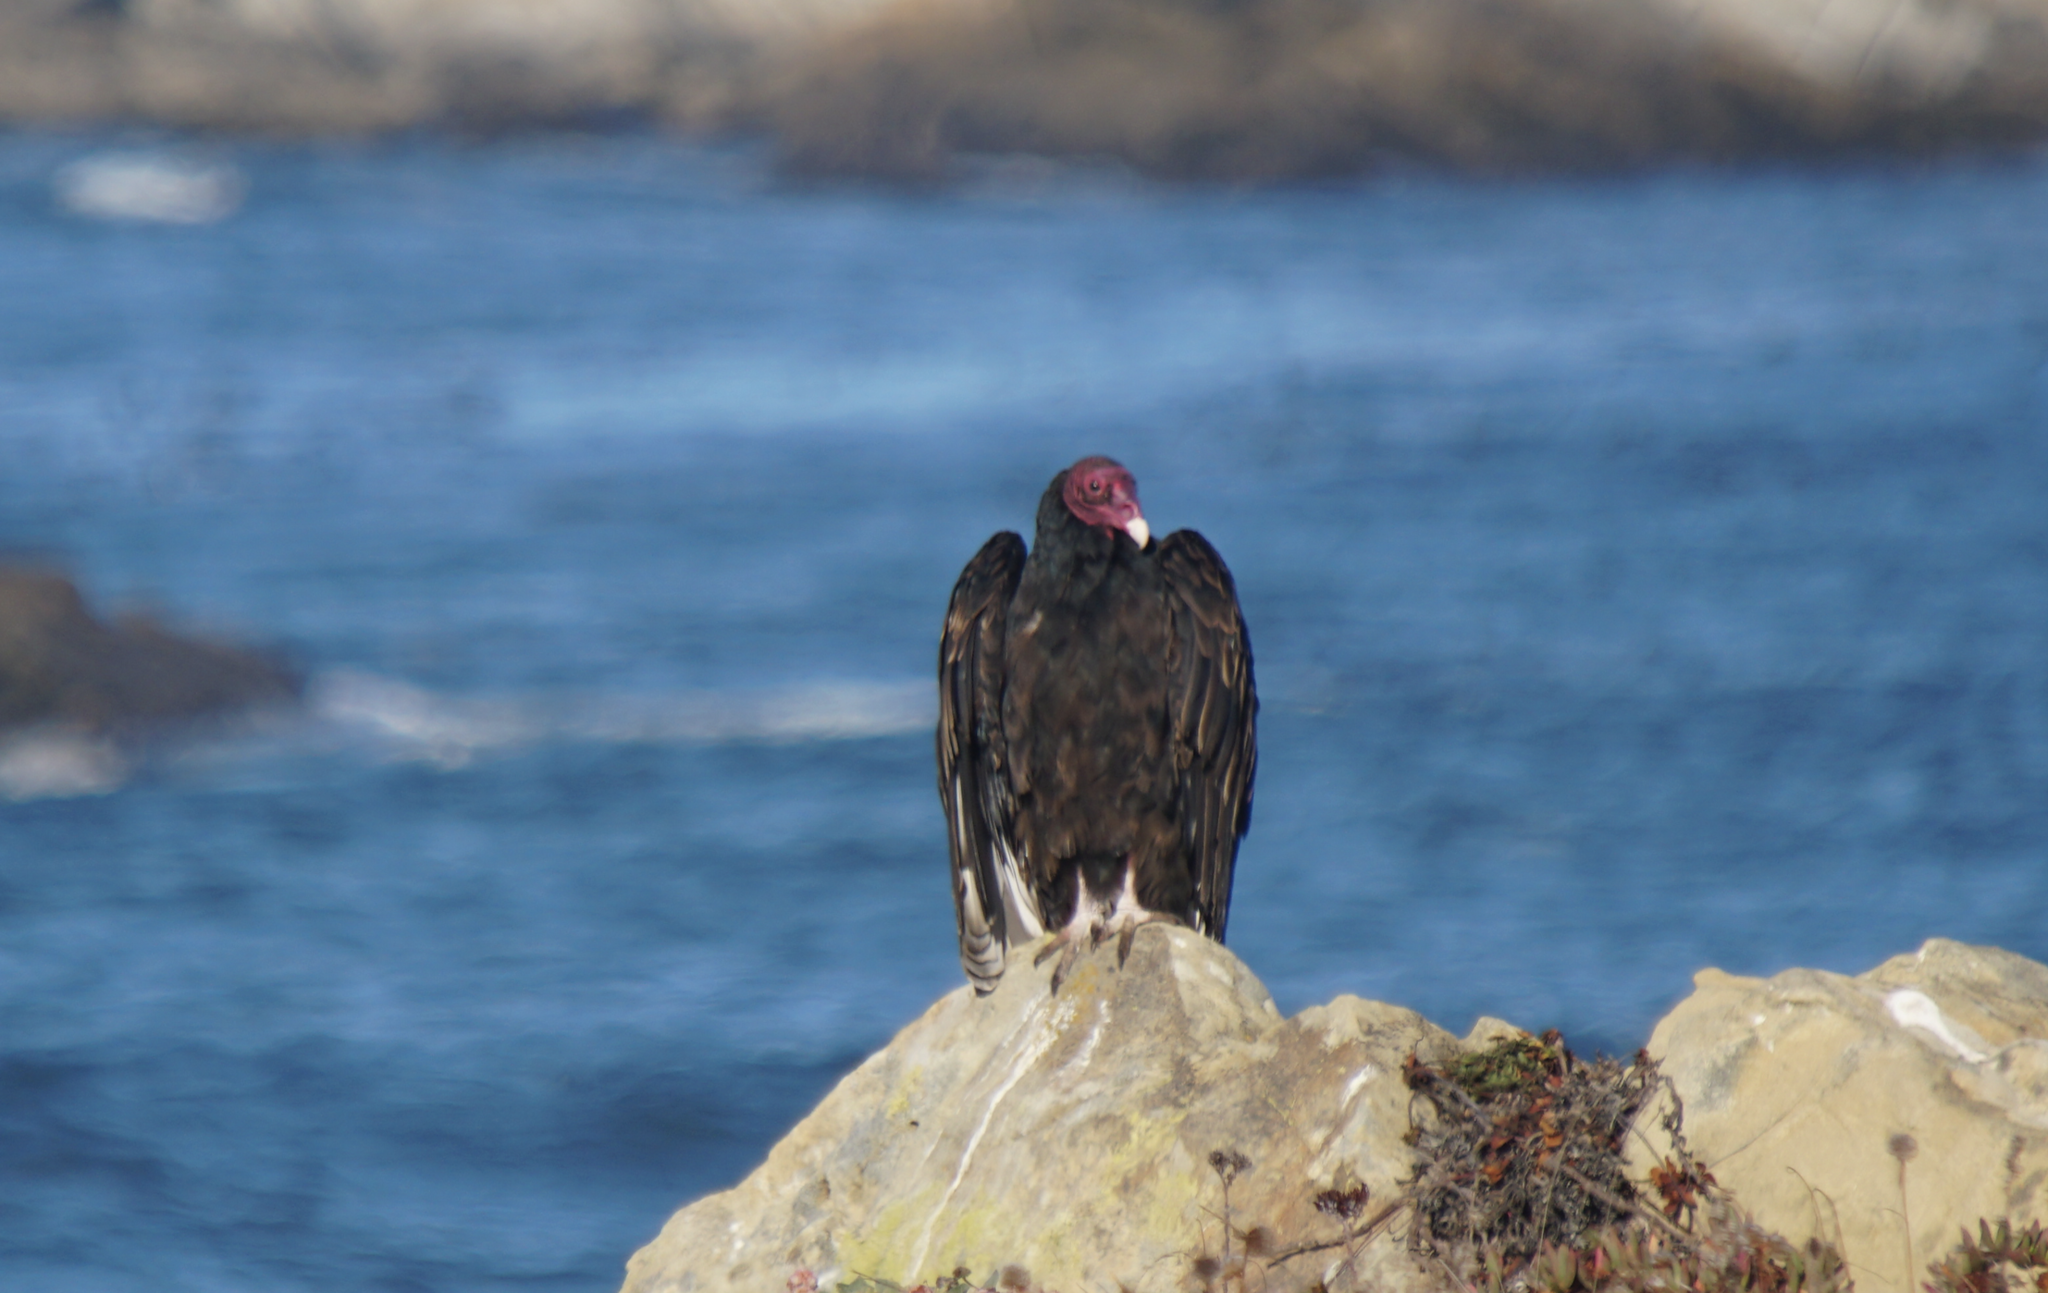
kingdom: Animalia
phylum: Chordata
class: Aves
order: Accipitriformes
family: Cathartidae
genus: Cathartes
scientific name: Cathartes aura
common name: Turkey vulture
